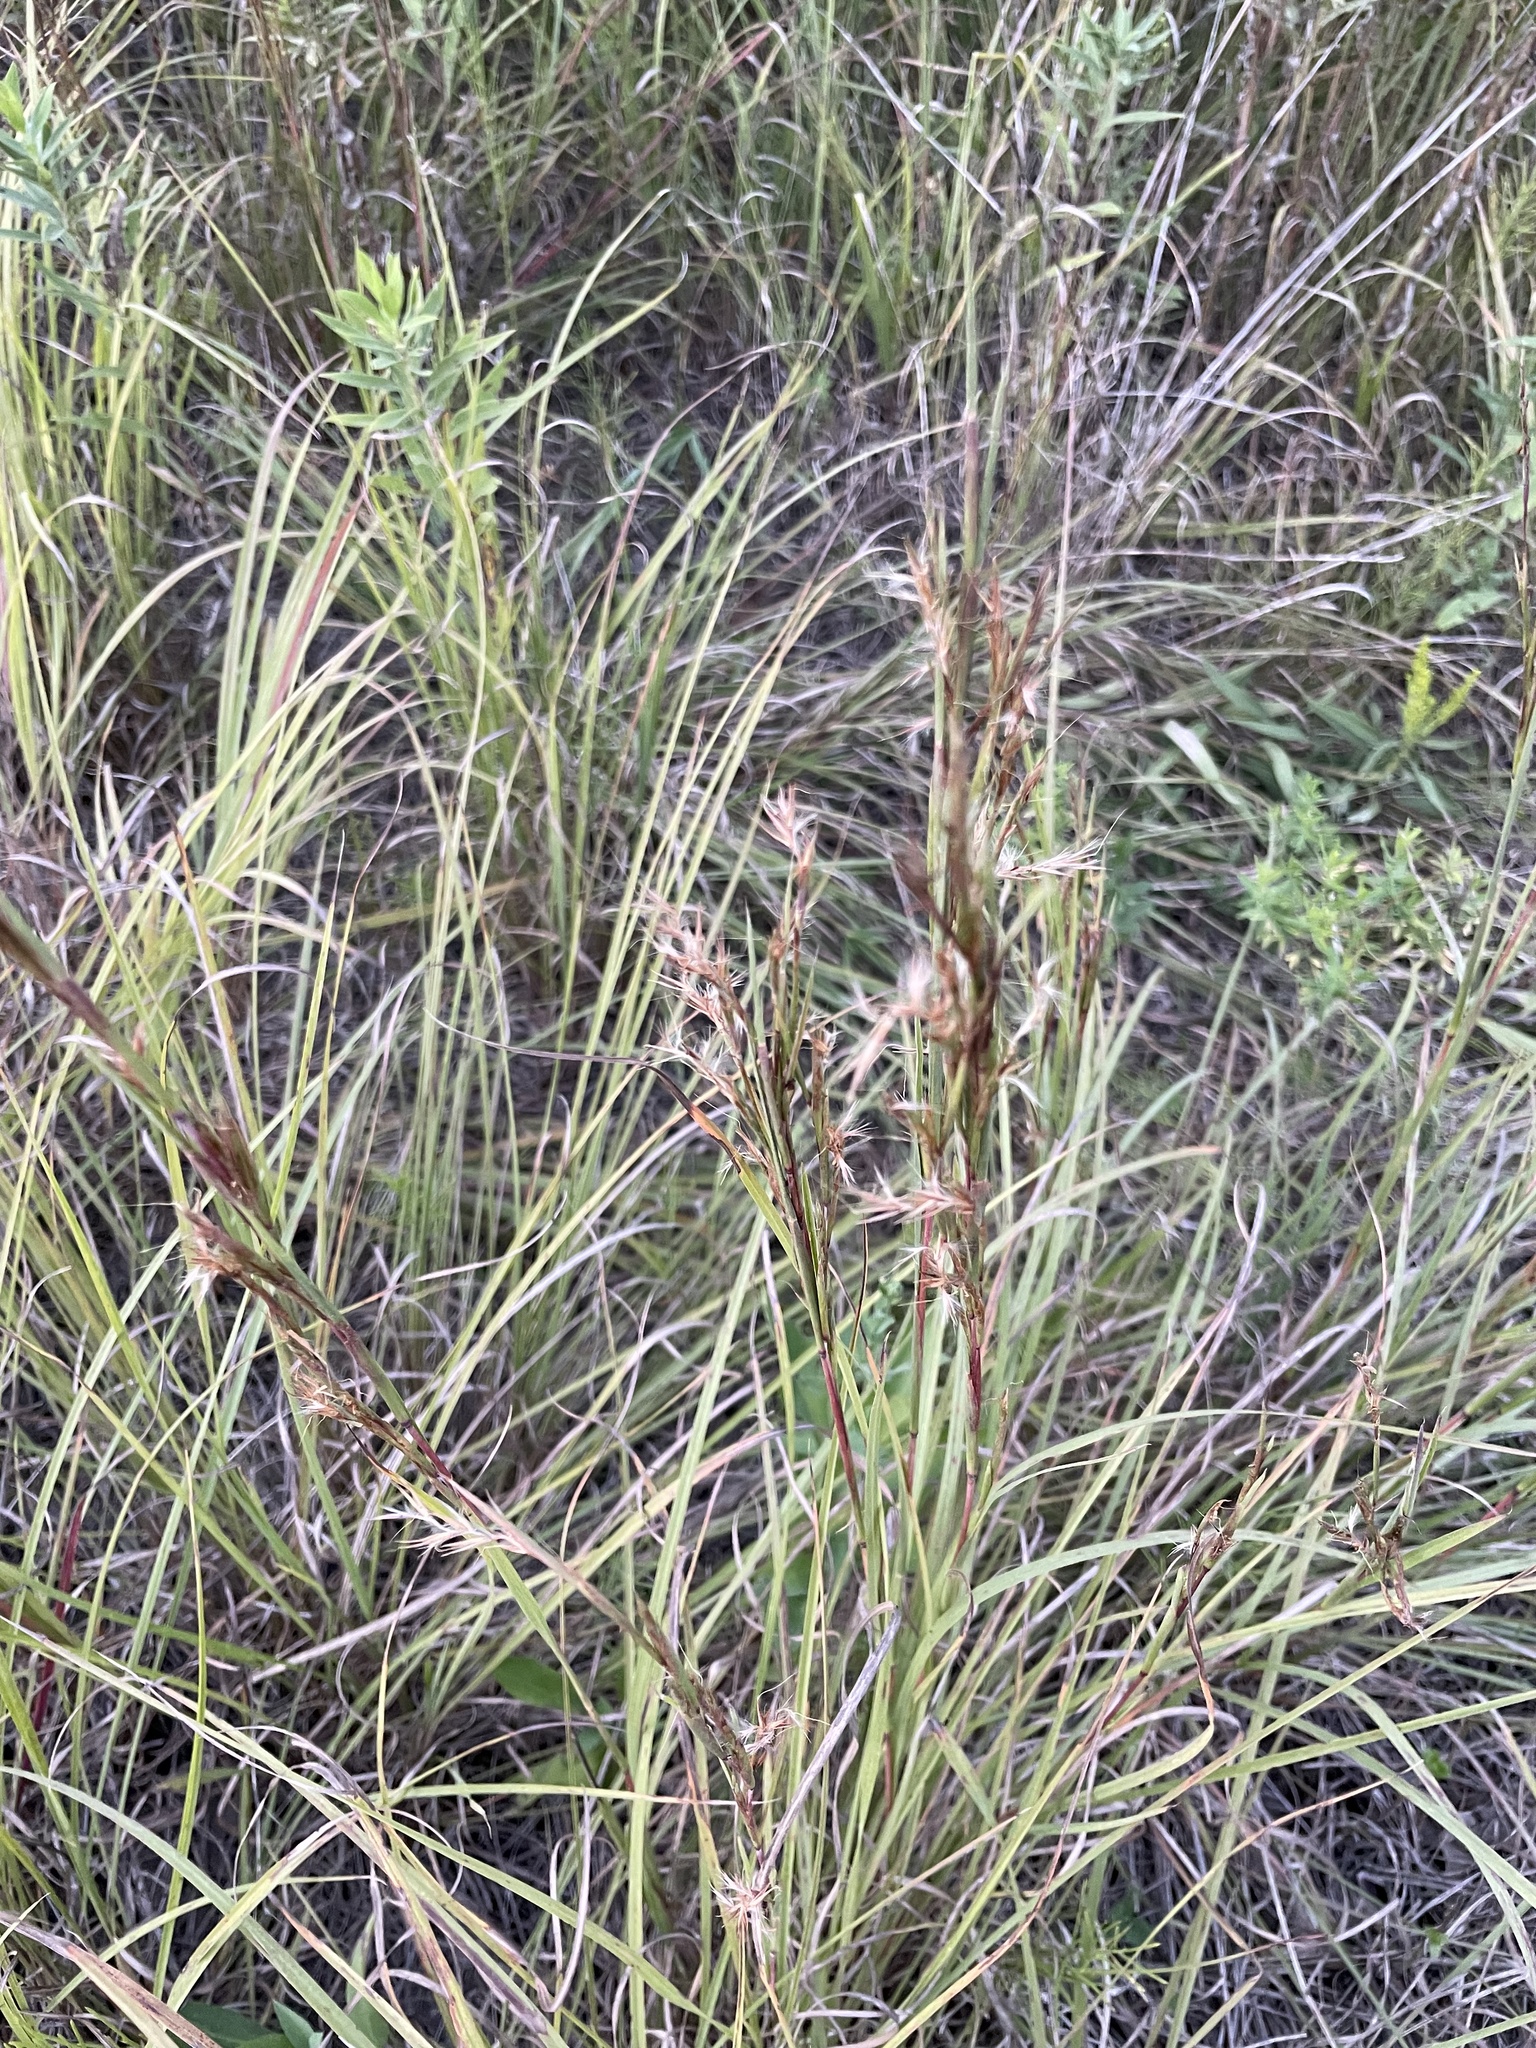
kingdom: Plantae
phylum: Tracheophyta
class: Liliopsida
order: Poales
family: Poaceae
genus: Schizachyrium
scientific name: Schizachyrium scoparium
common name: Little bluestem
